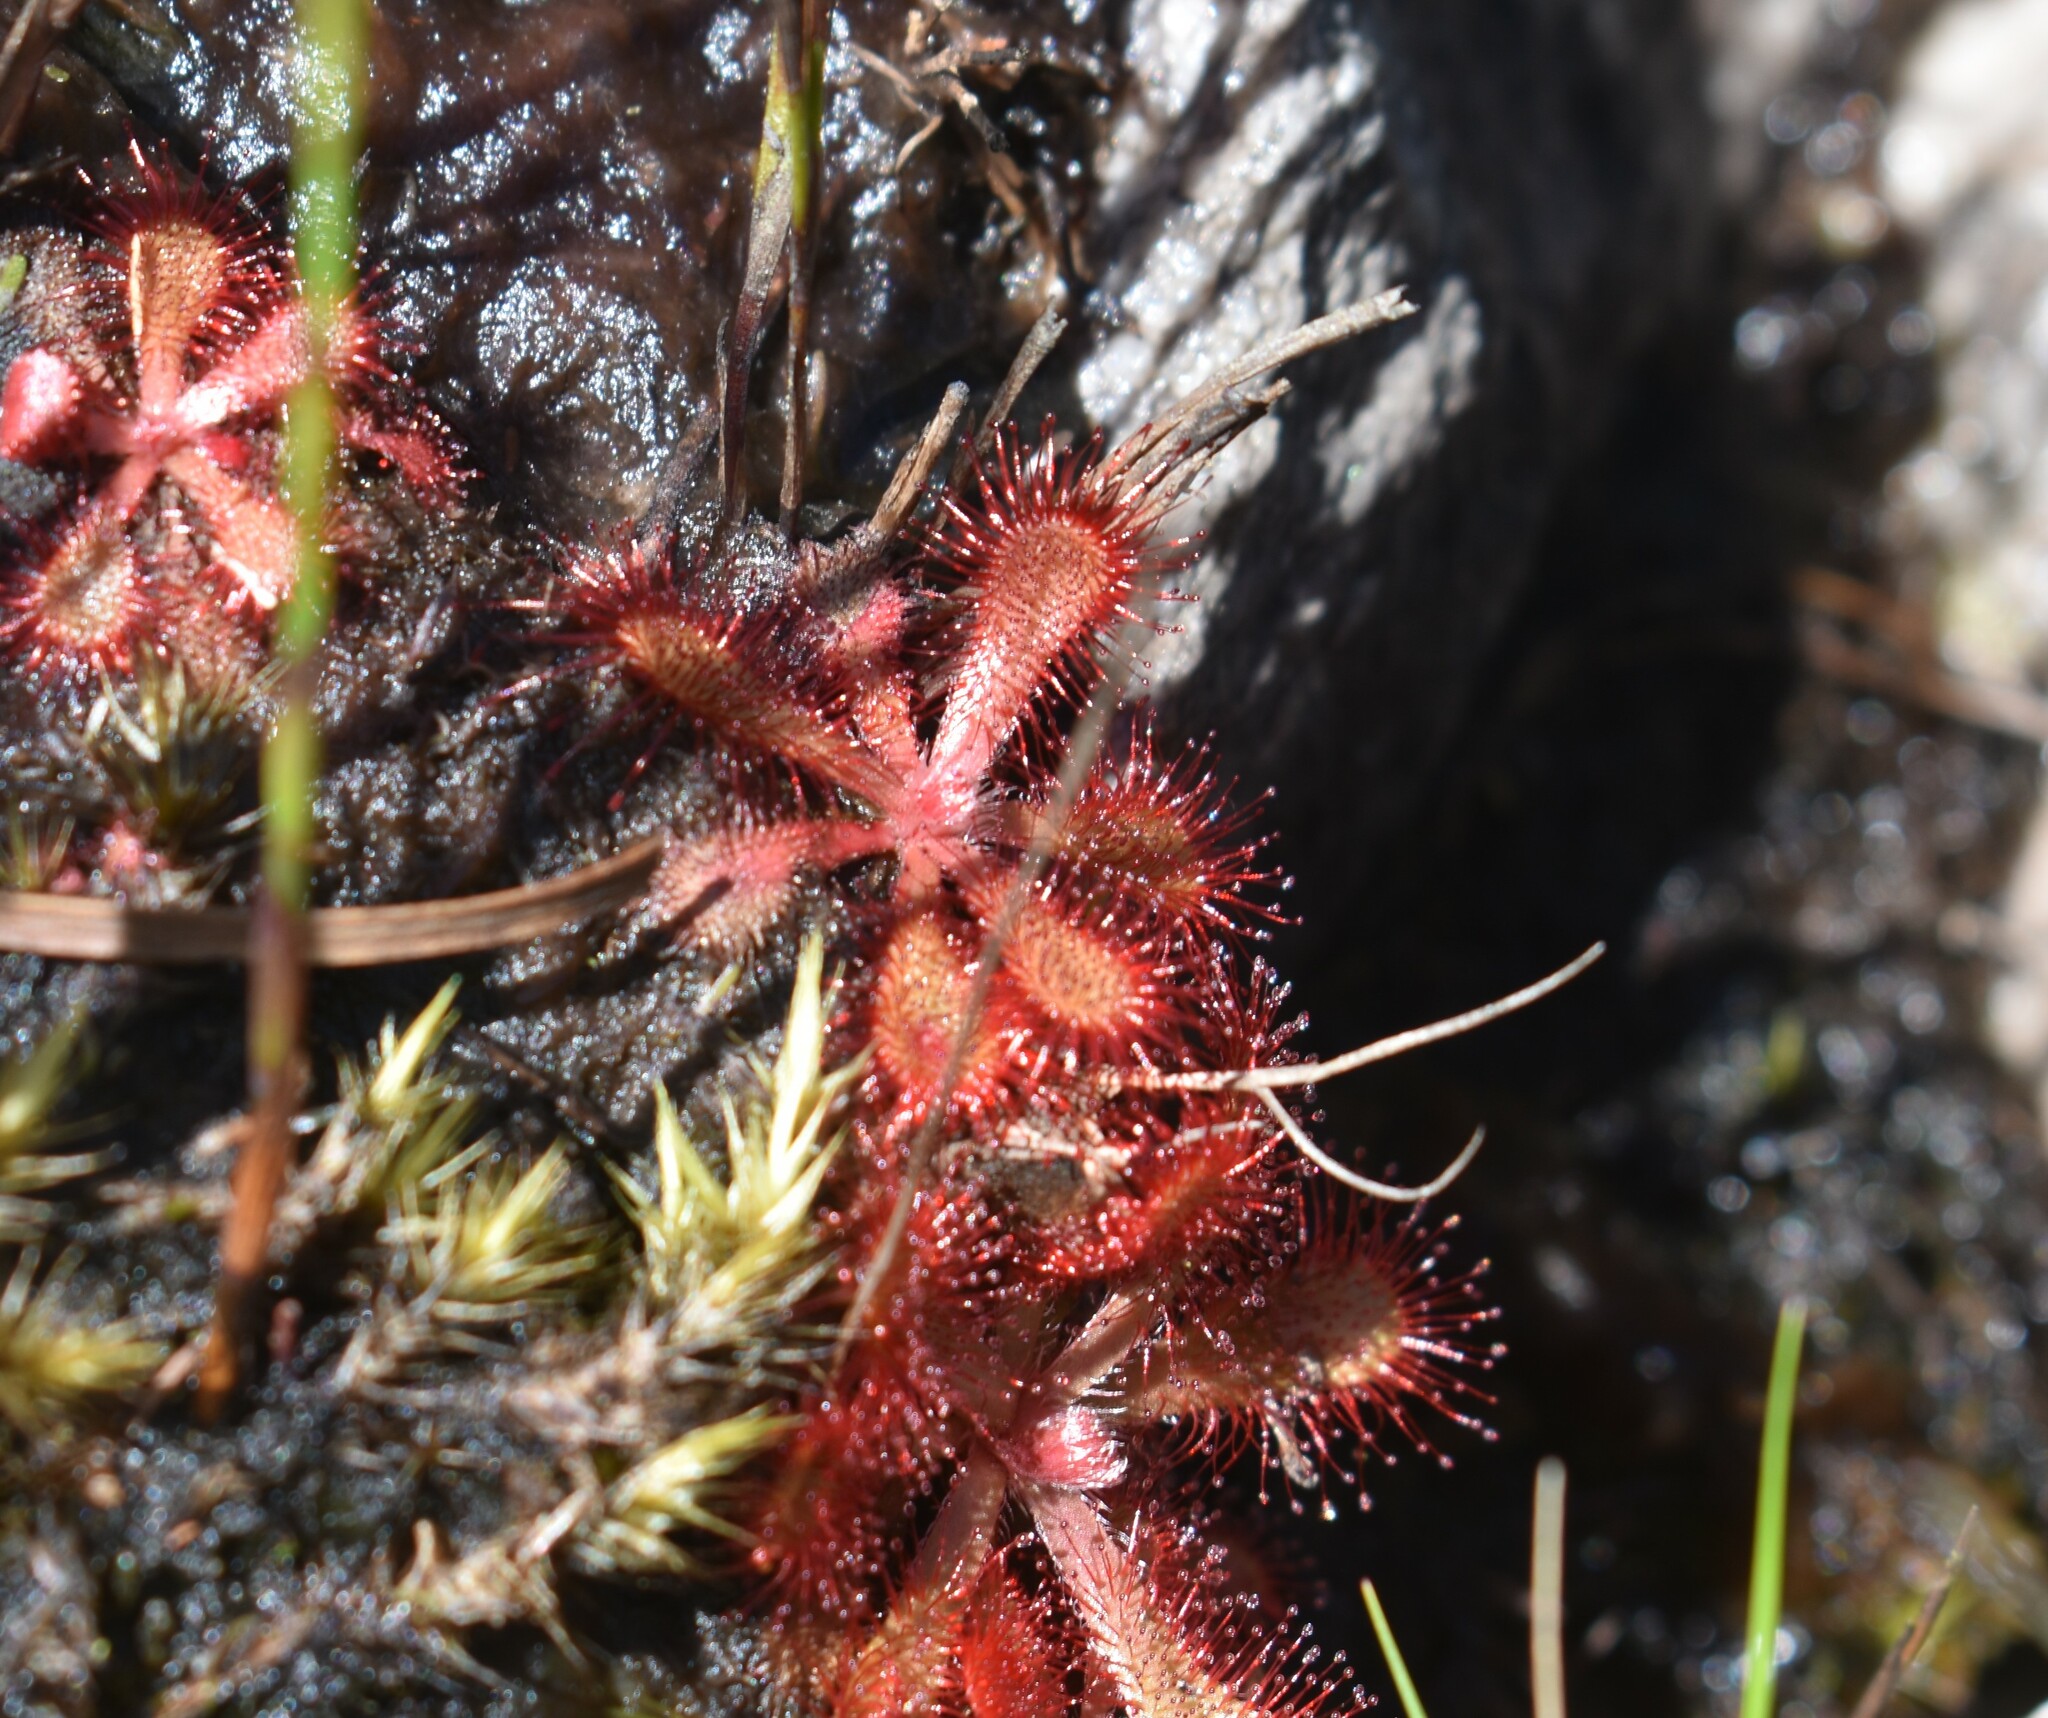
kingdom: Plantae
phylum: Tracheophyta
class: Magnoliopsida
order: Caryophyllales
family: Droseraceae
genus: Drosera
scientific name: Drosera natalensis
